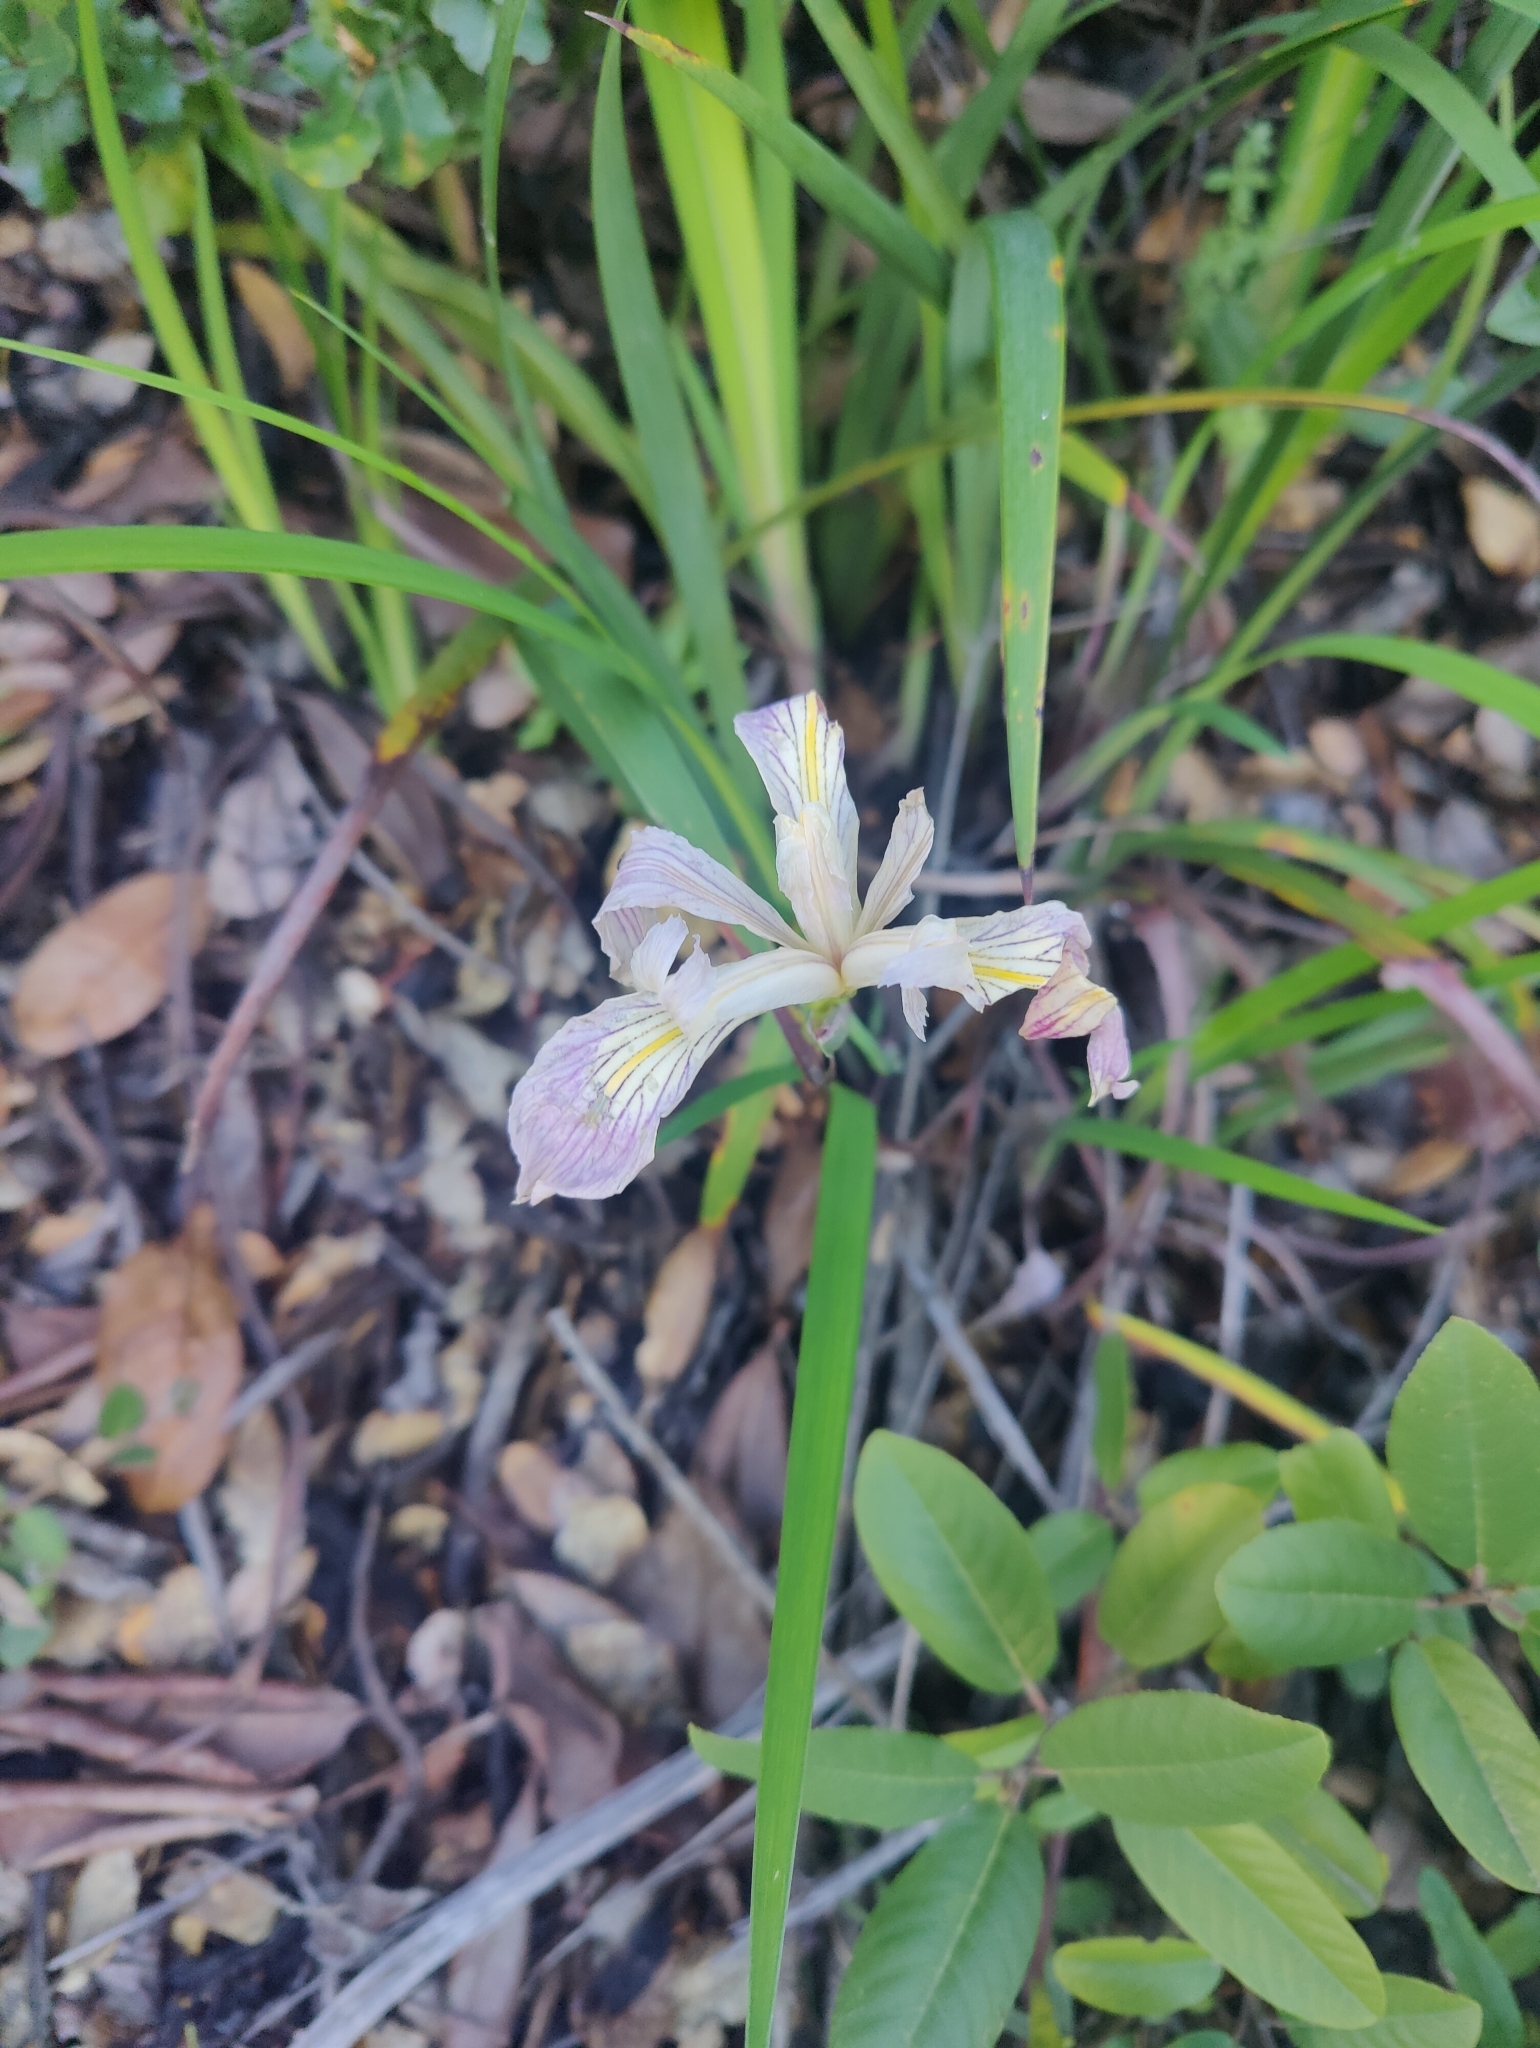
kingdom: Plantae
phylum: Tracheophyta
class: Liliopsida
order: Asparagales
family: Iridaceae
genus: Iris
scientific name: Iris douglasiana
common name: Marin iris
